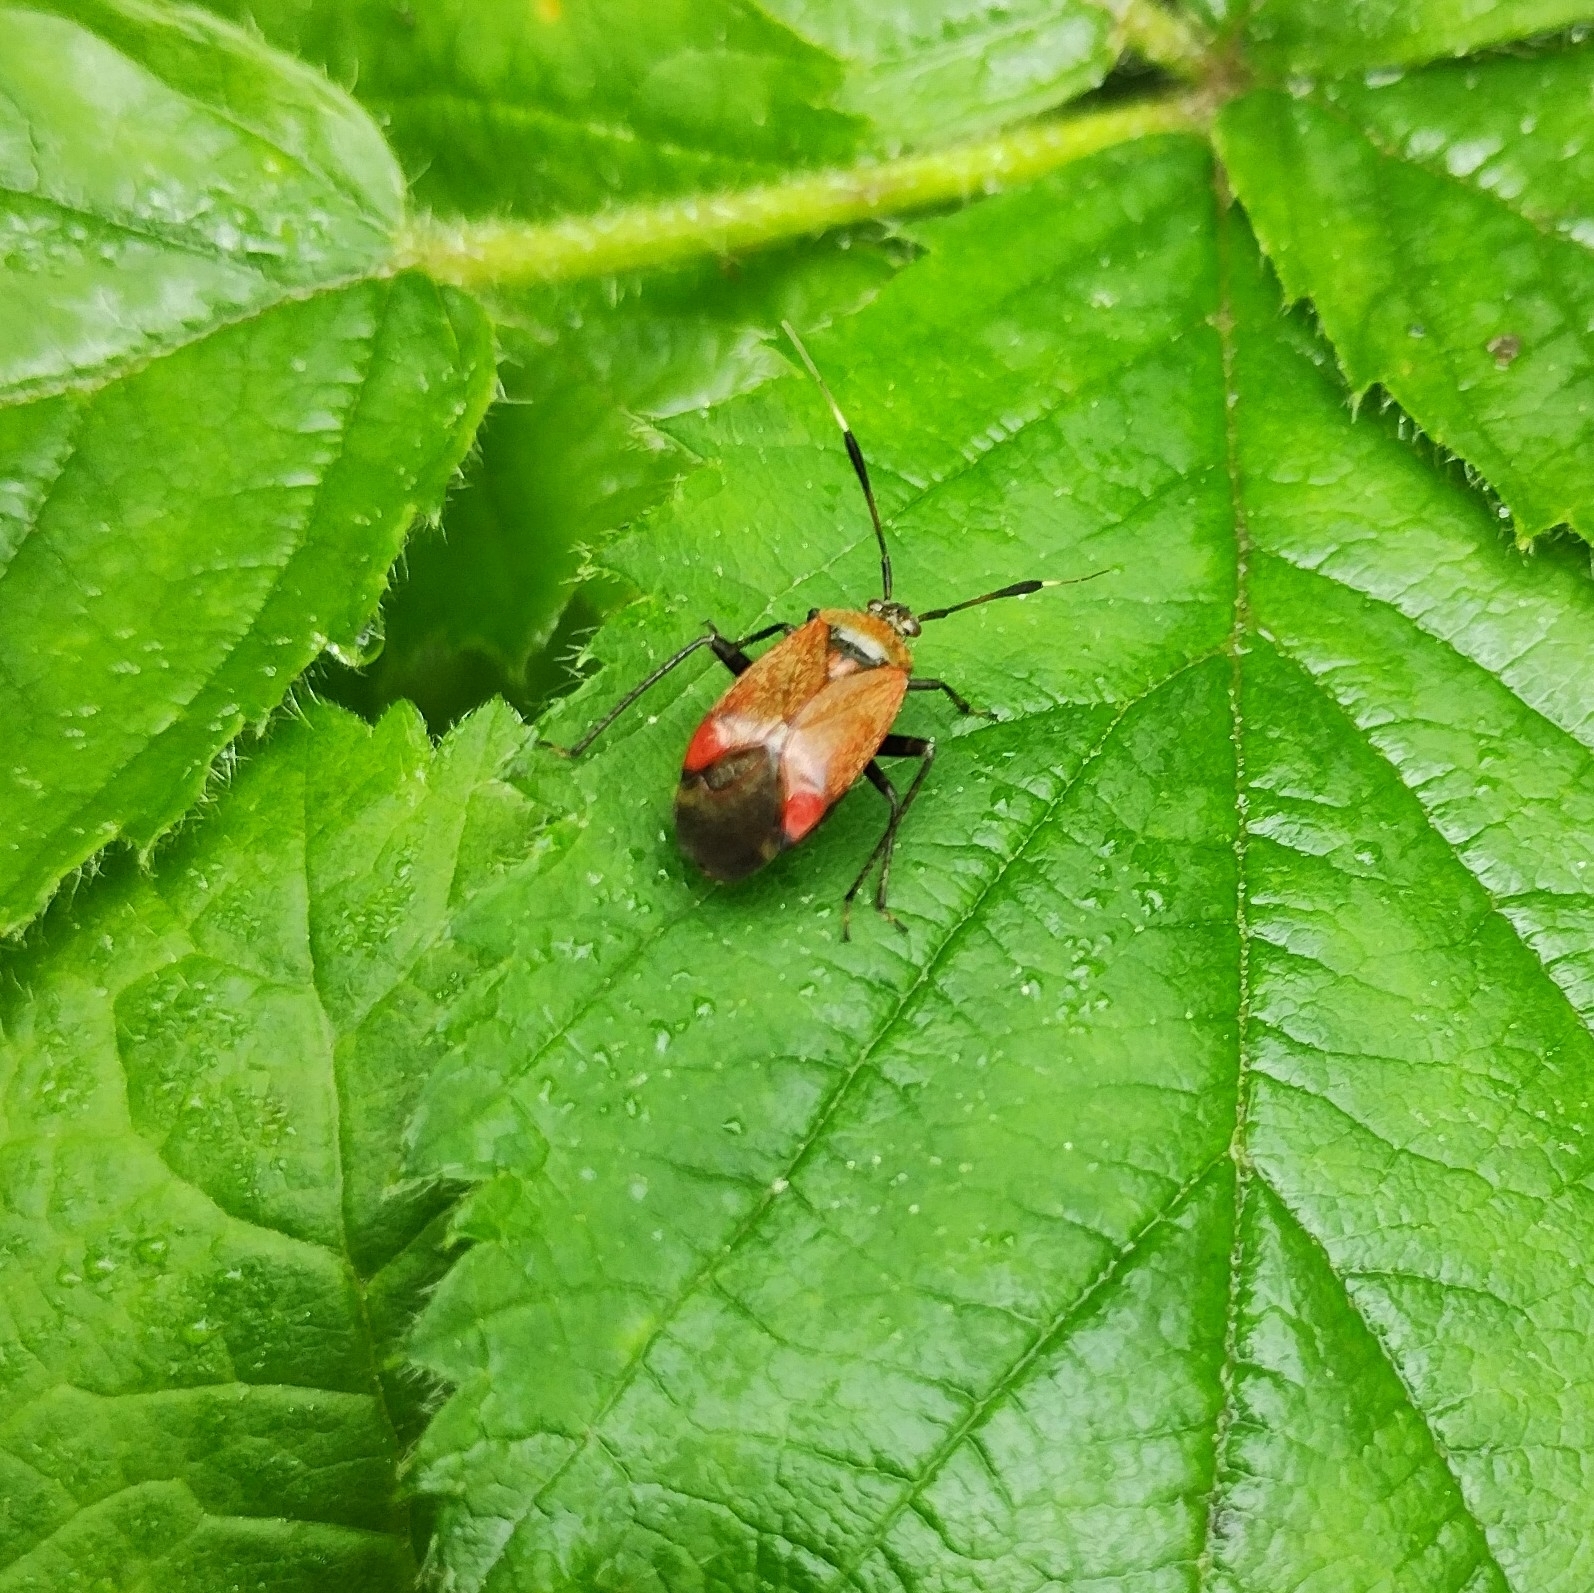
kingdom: Animalia
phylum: Arthropoda
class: Insecta
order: Hemiptera
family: Miridae
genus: Deraeocoris
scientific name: Deraeocoris ruber
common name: Plant bug
